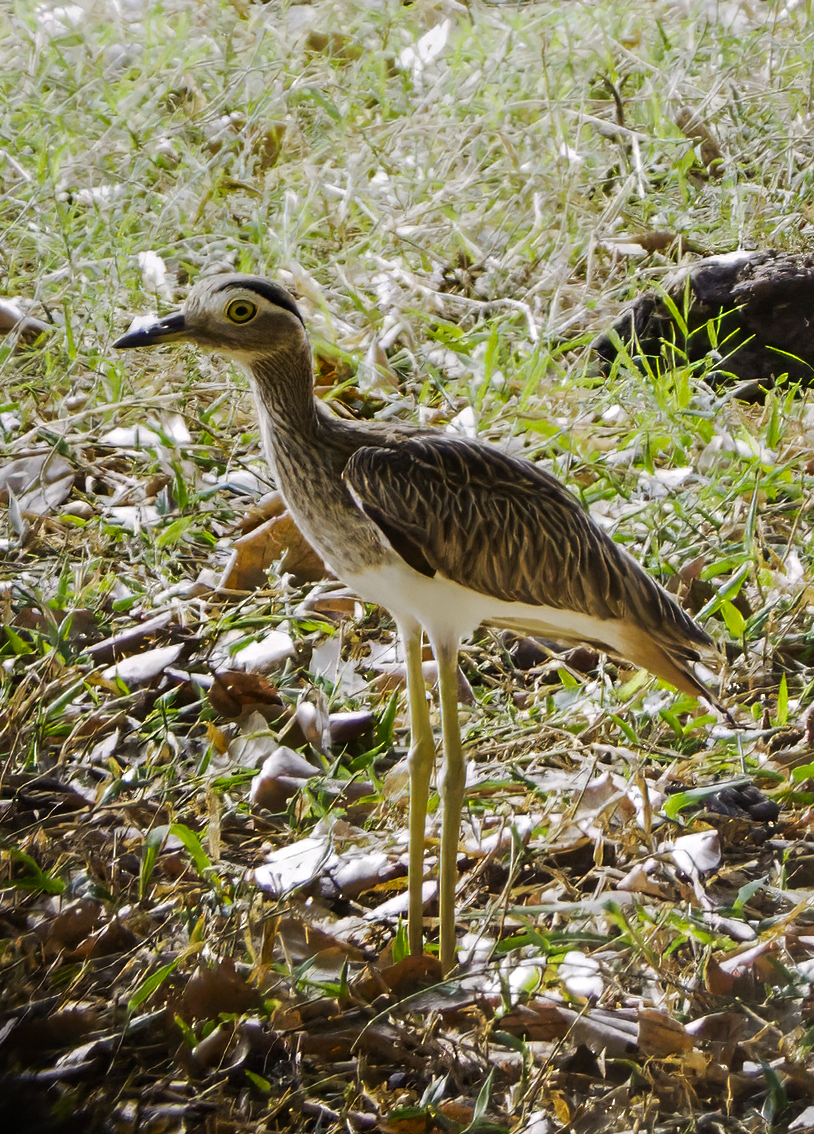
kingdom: Animalia
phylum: Chordata
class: Aves
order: Charadriiformes
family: Burhinidae
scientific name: Burhinidae
